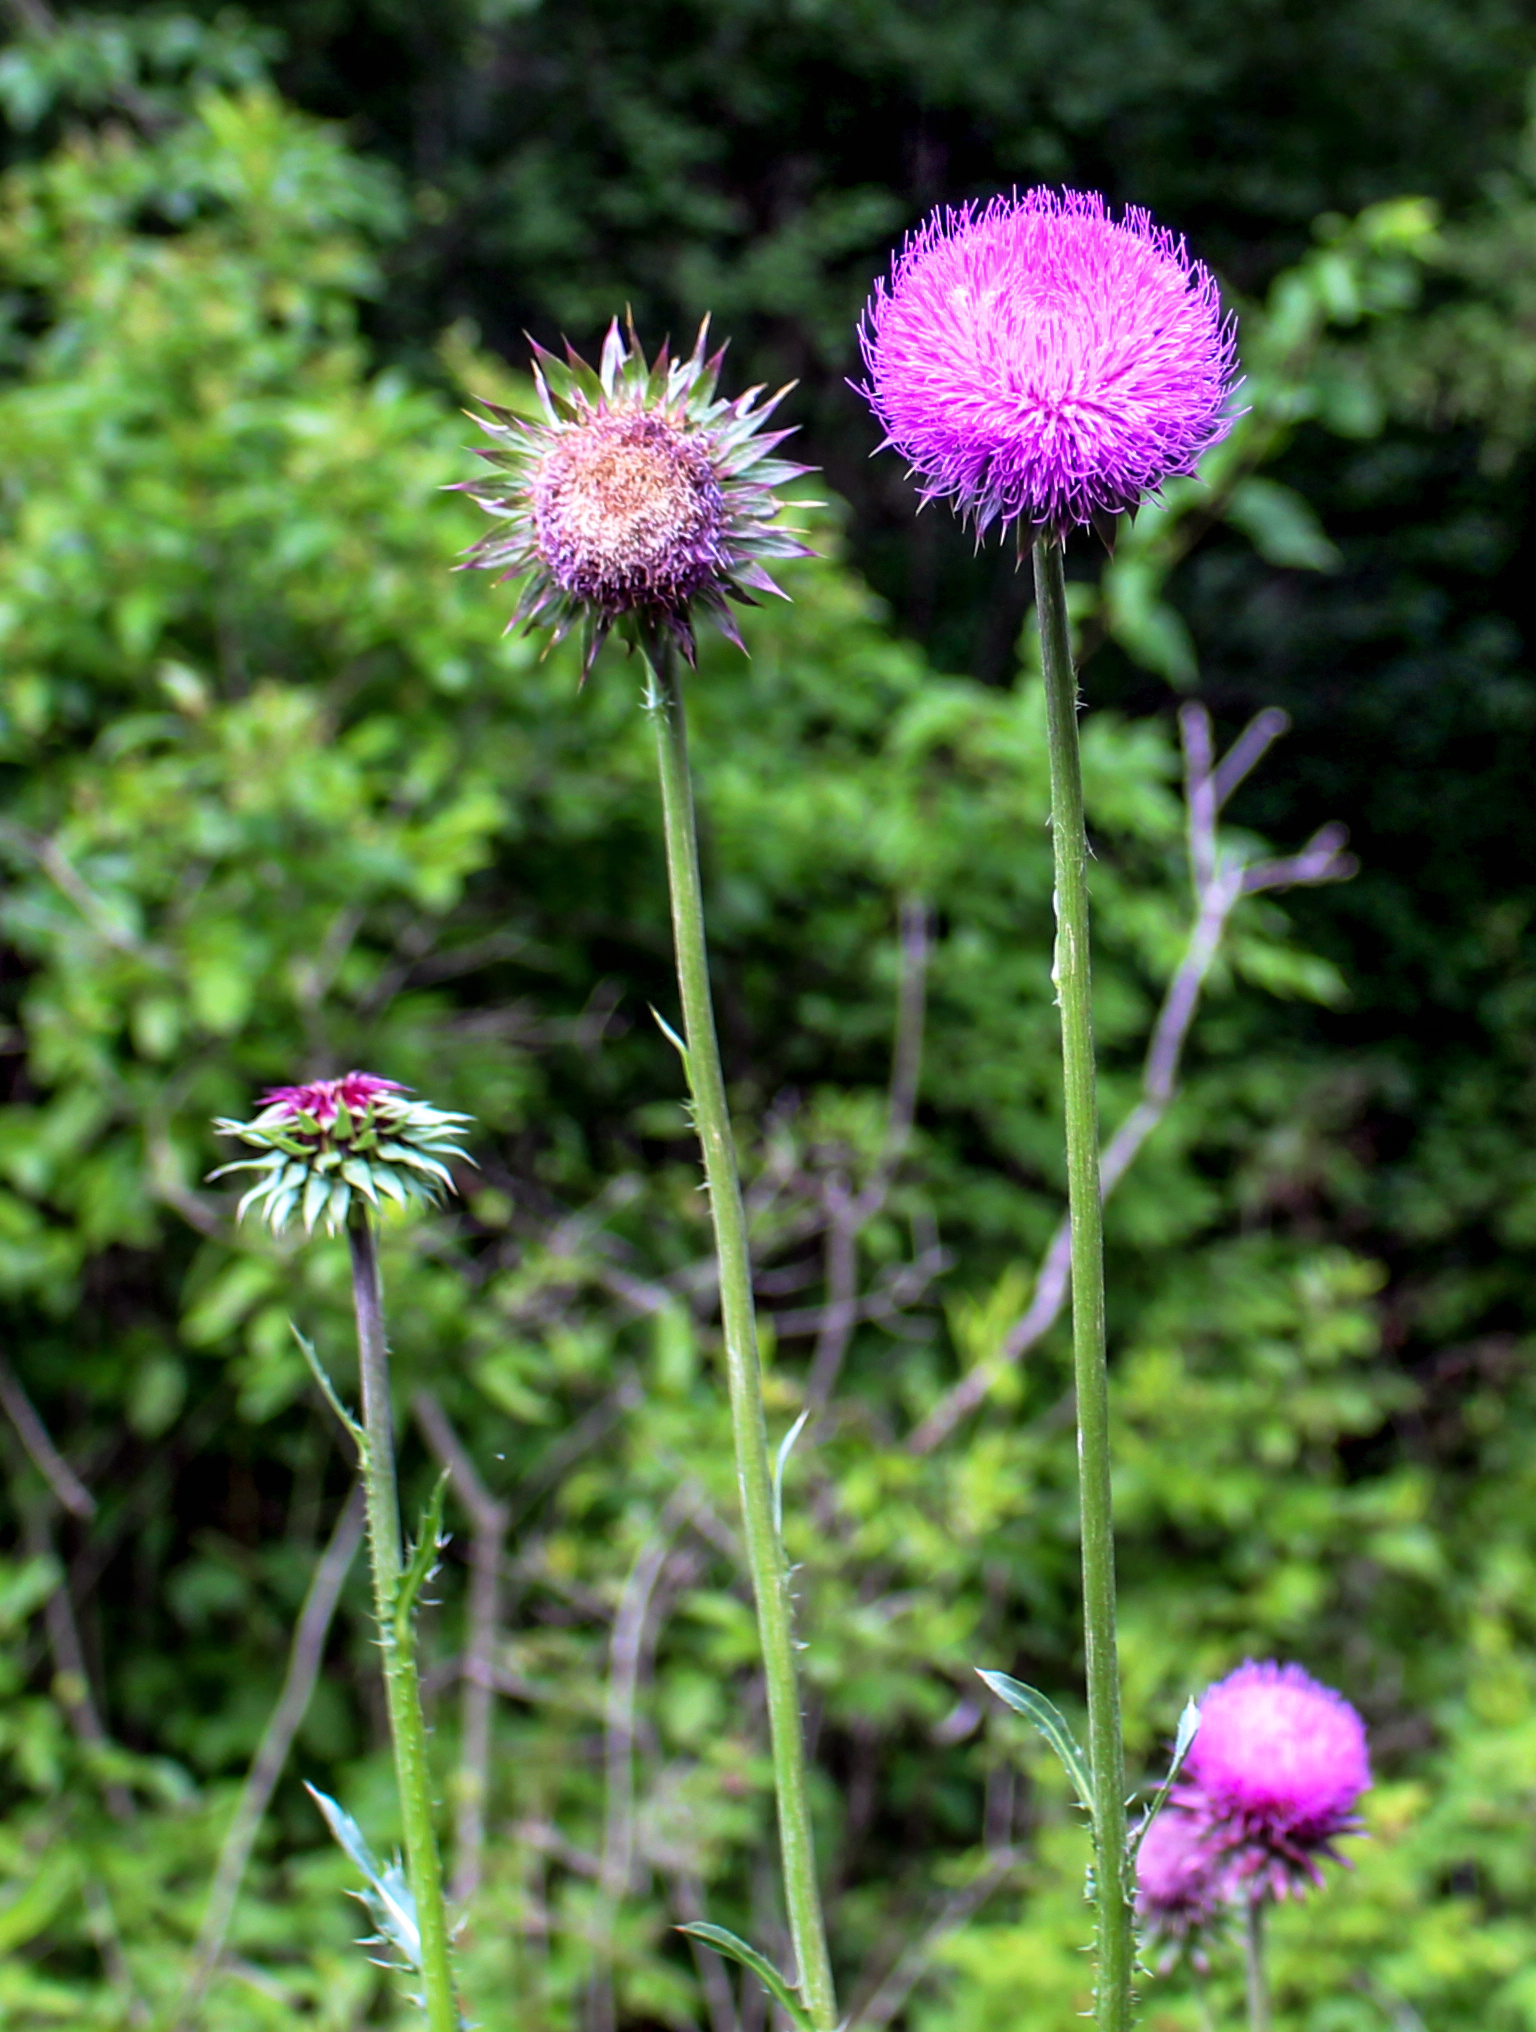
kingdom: Plantae
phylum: Tracheophyta
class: Magnoliopsida
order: Asterales
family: Asteraceae
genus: Carduus
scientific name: Carduus nutans
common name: Musk thistle
